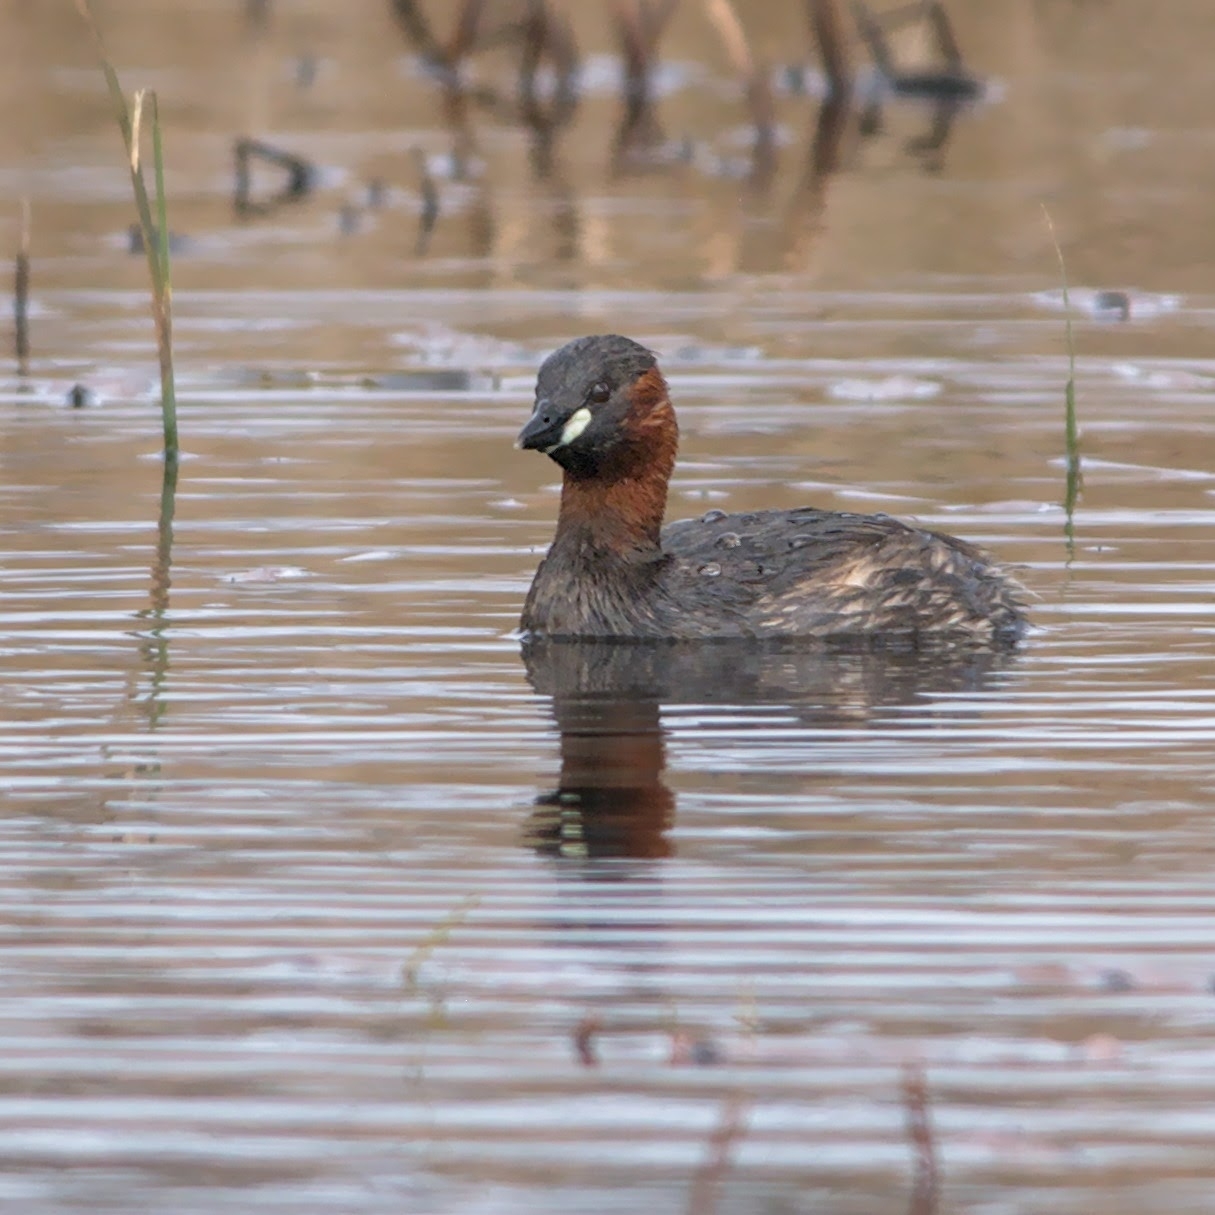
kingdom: Animalia
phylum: Chordata
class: Aves
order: Podicipediformes
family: Podicipedidae
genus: Tachybaptus
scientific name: Tachybaptus ruficollis
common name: Little grebe
